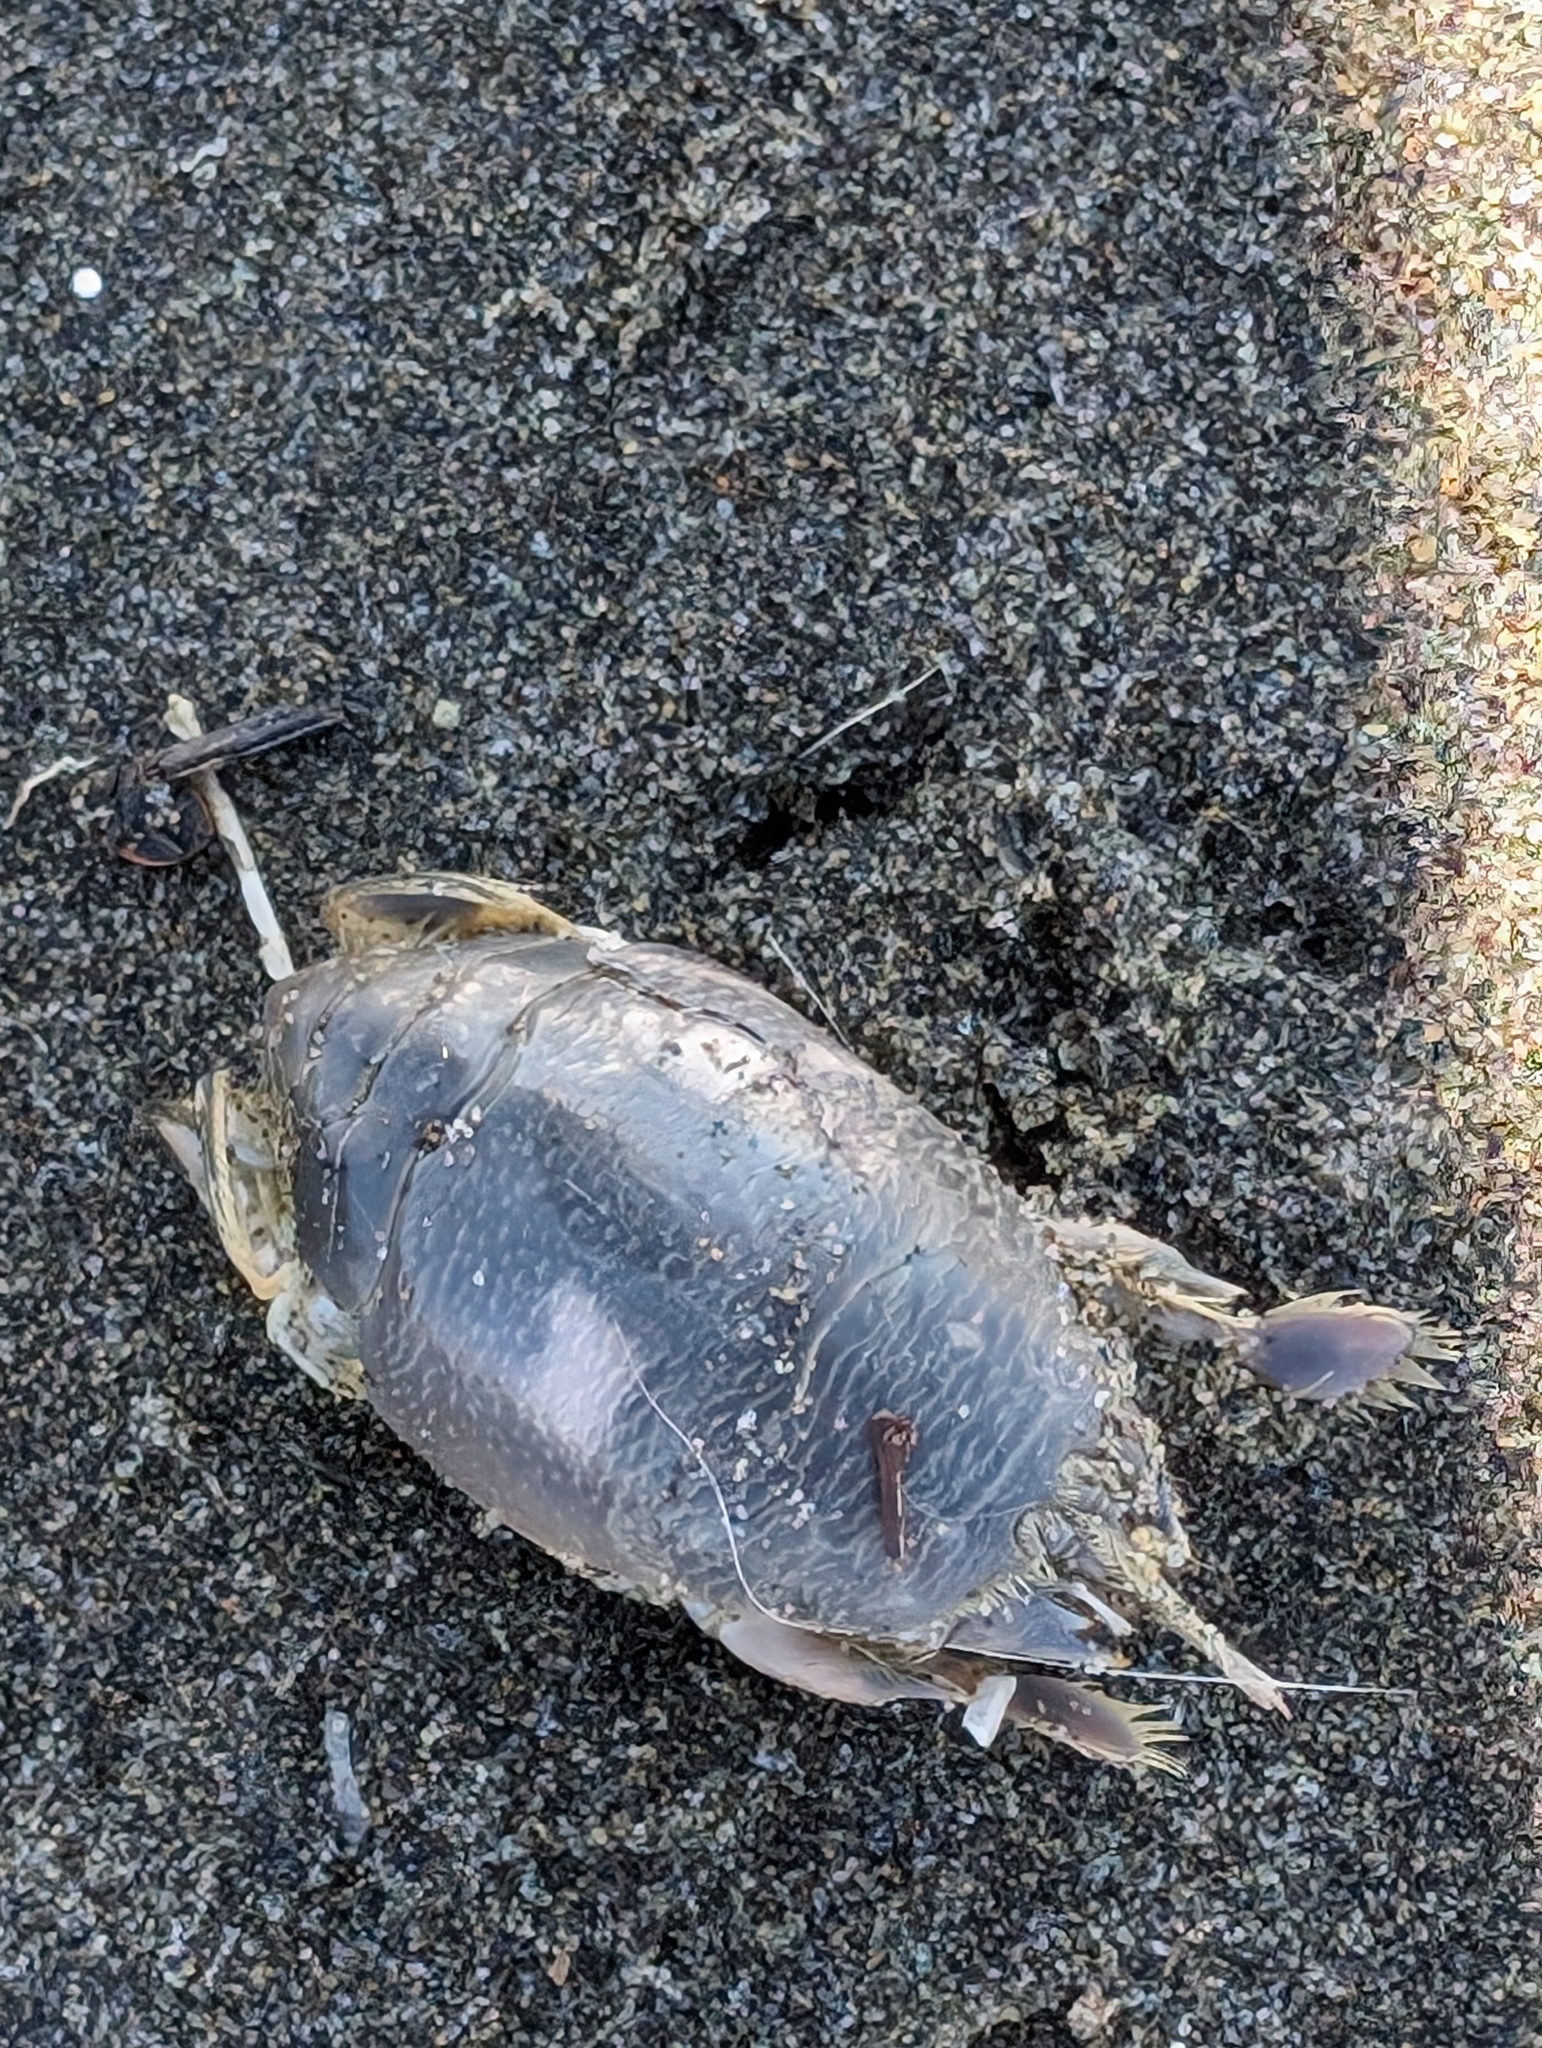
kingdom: Animalia
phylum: Arthropoda
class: Malacostraca
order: Decapoda
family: Hippidae
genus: Emerita
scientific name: Emerita analoga
